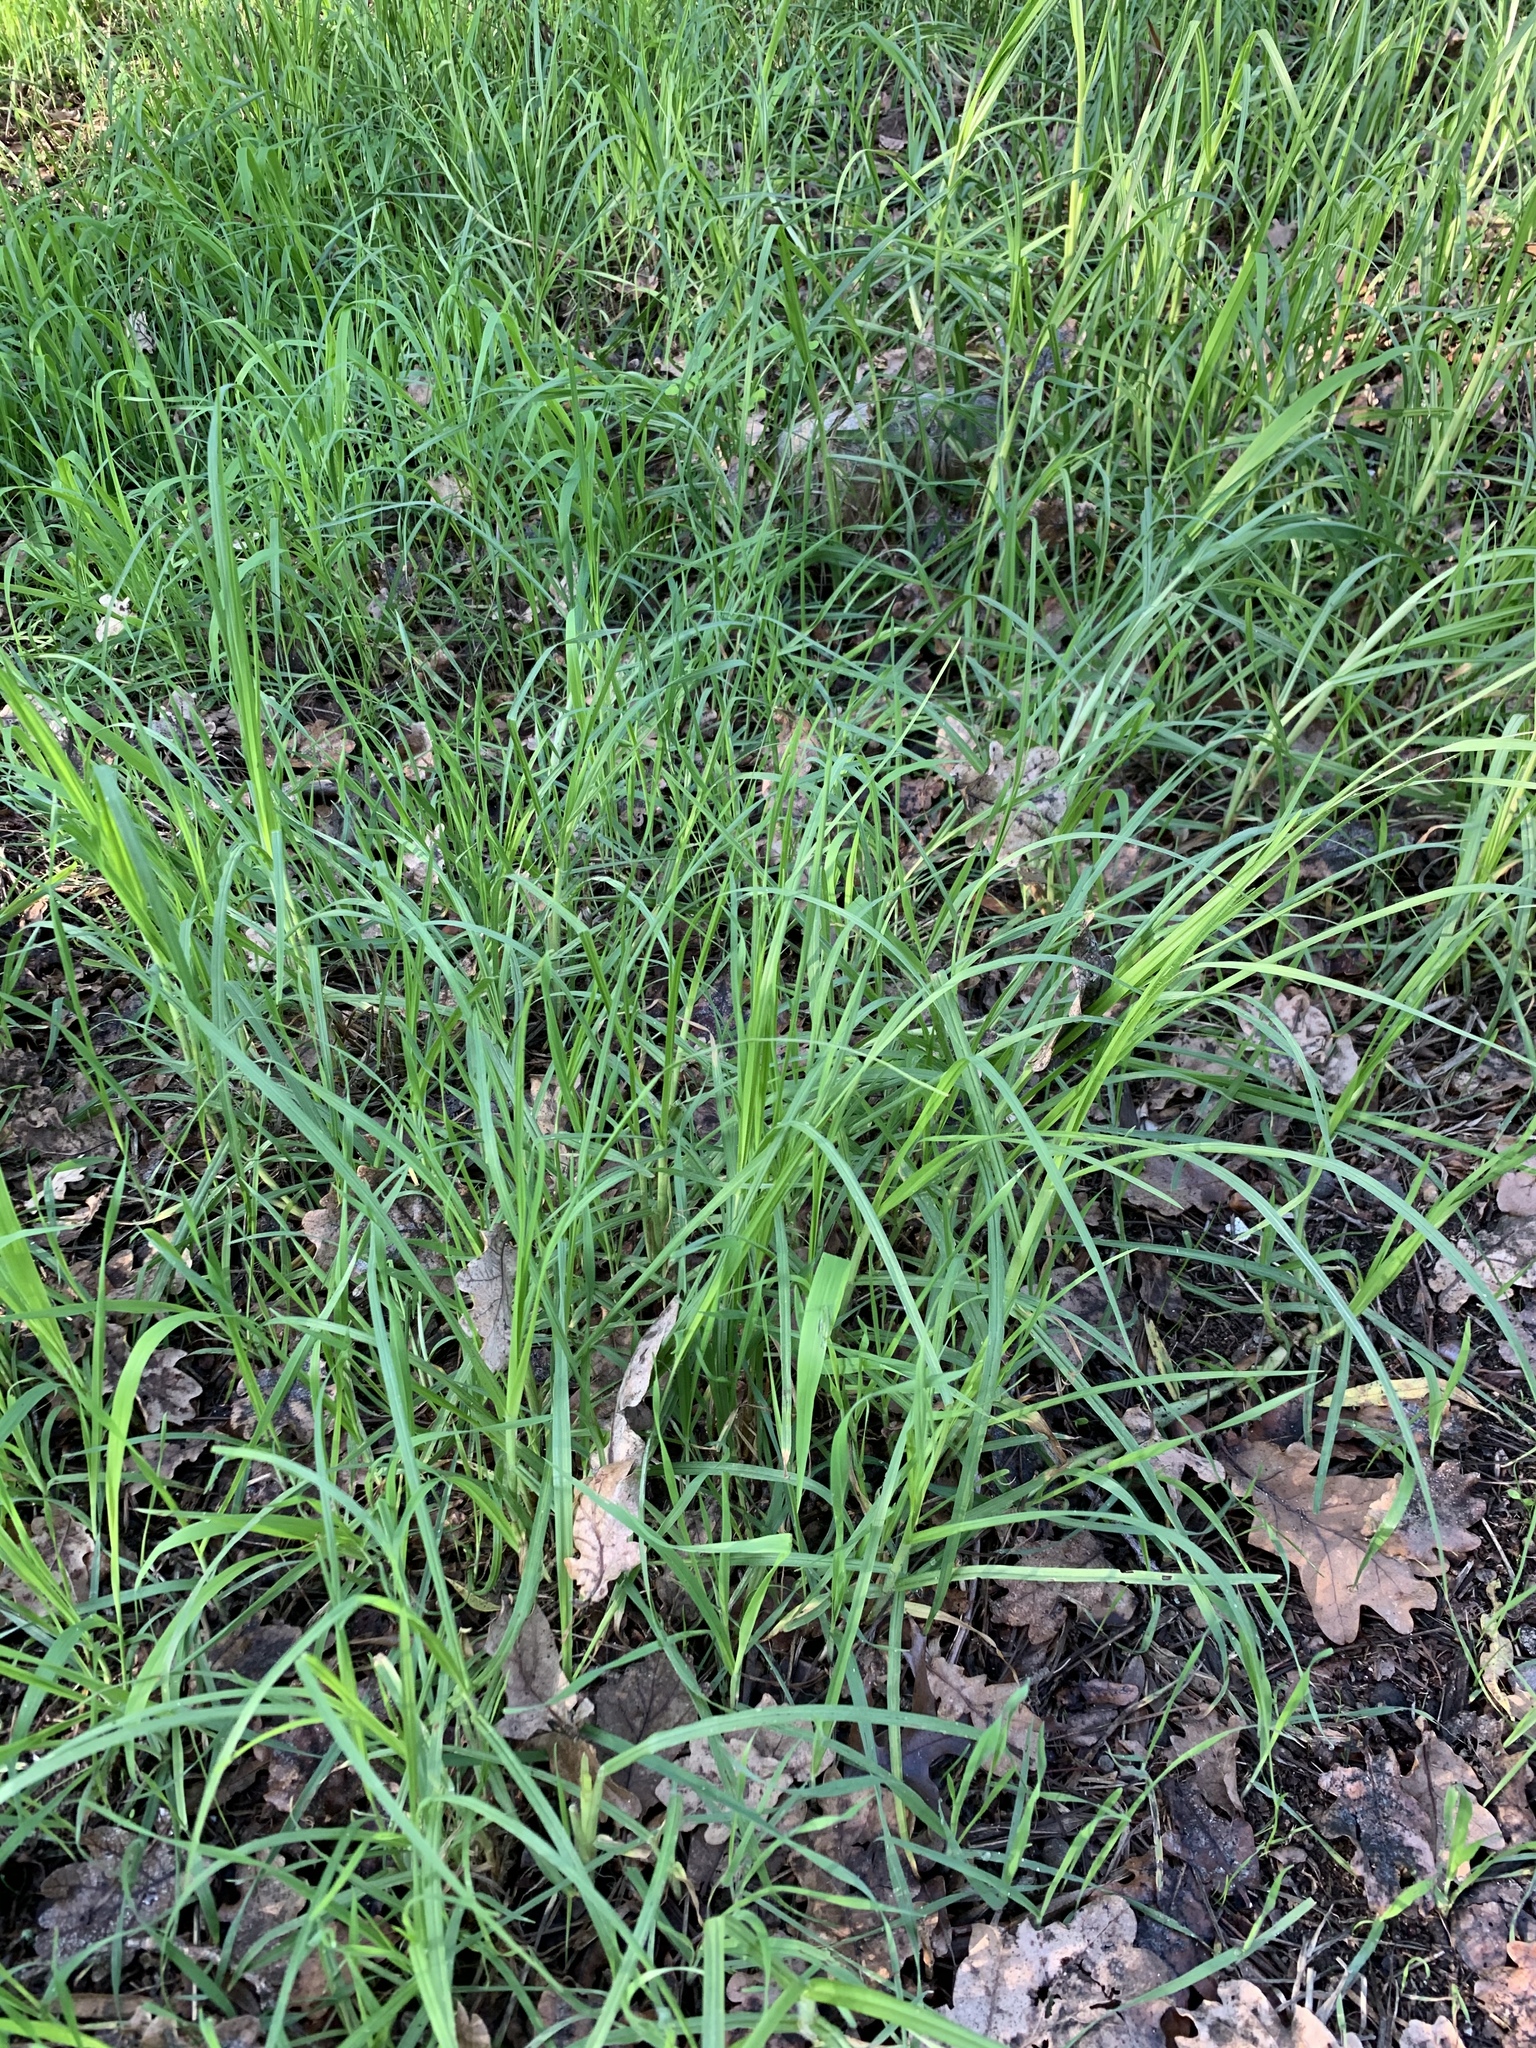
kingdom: Plantae
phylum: Tracheophyta
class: Liliopsida
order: Poales
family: Poaceae
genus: Cenchrus
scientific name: Cenchrus clandestinus
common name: Kikuyugrass
